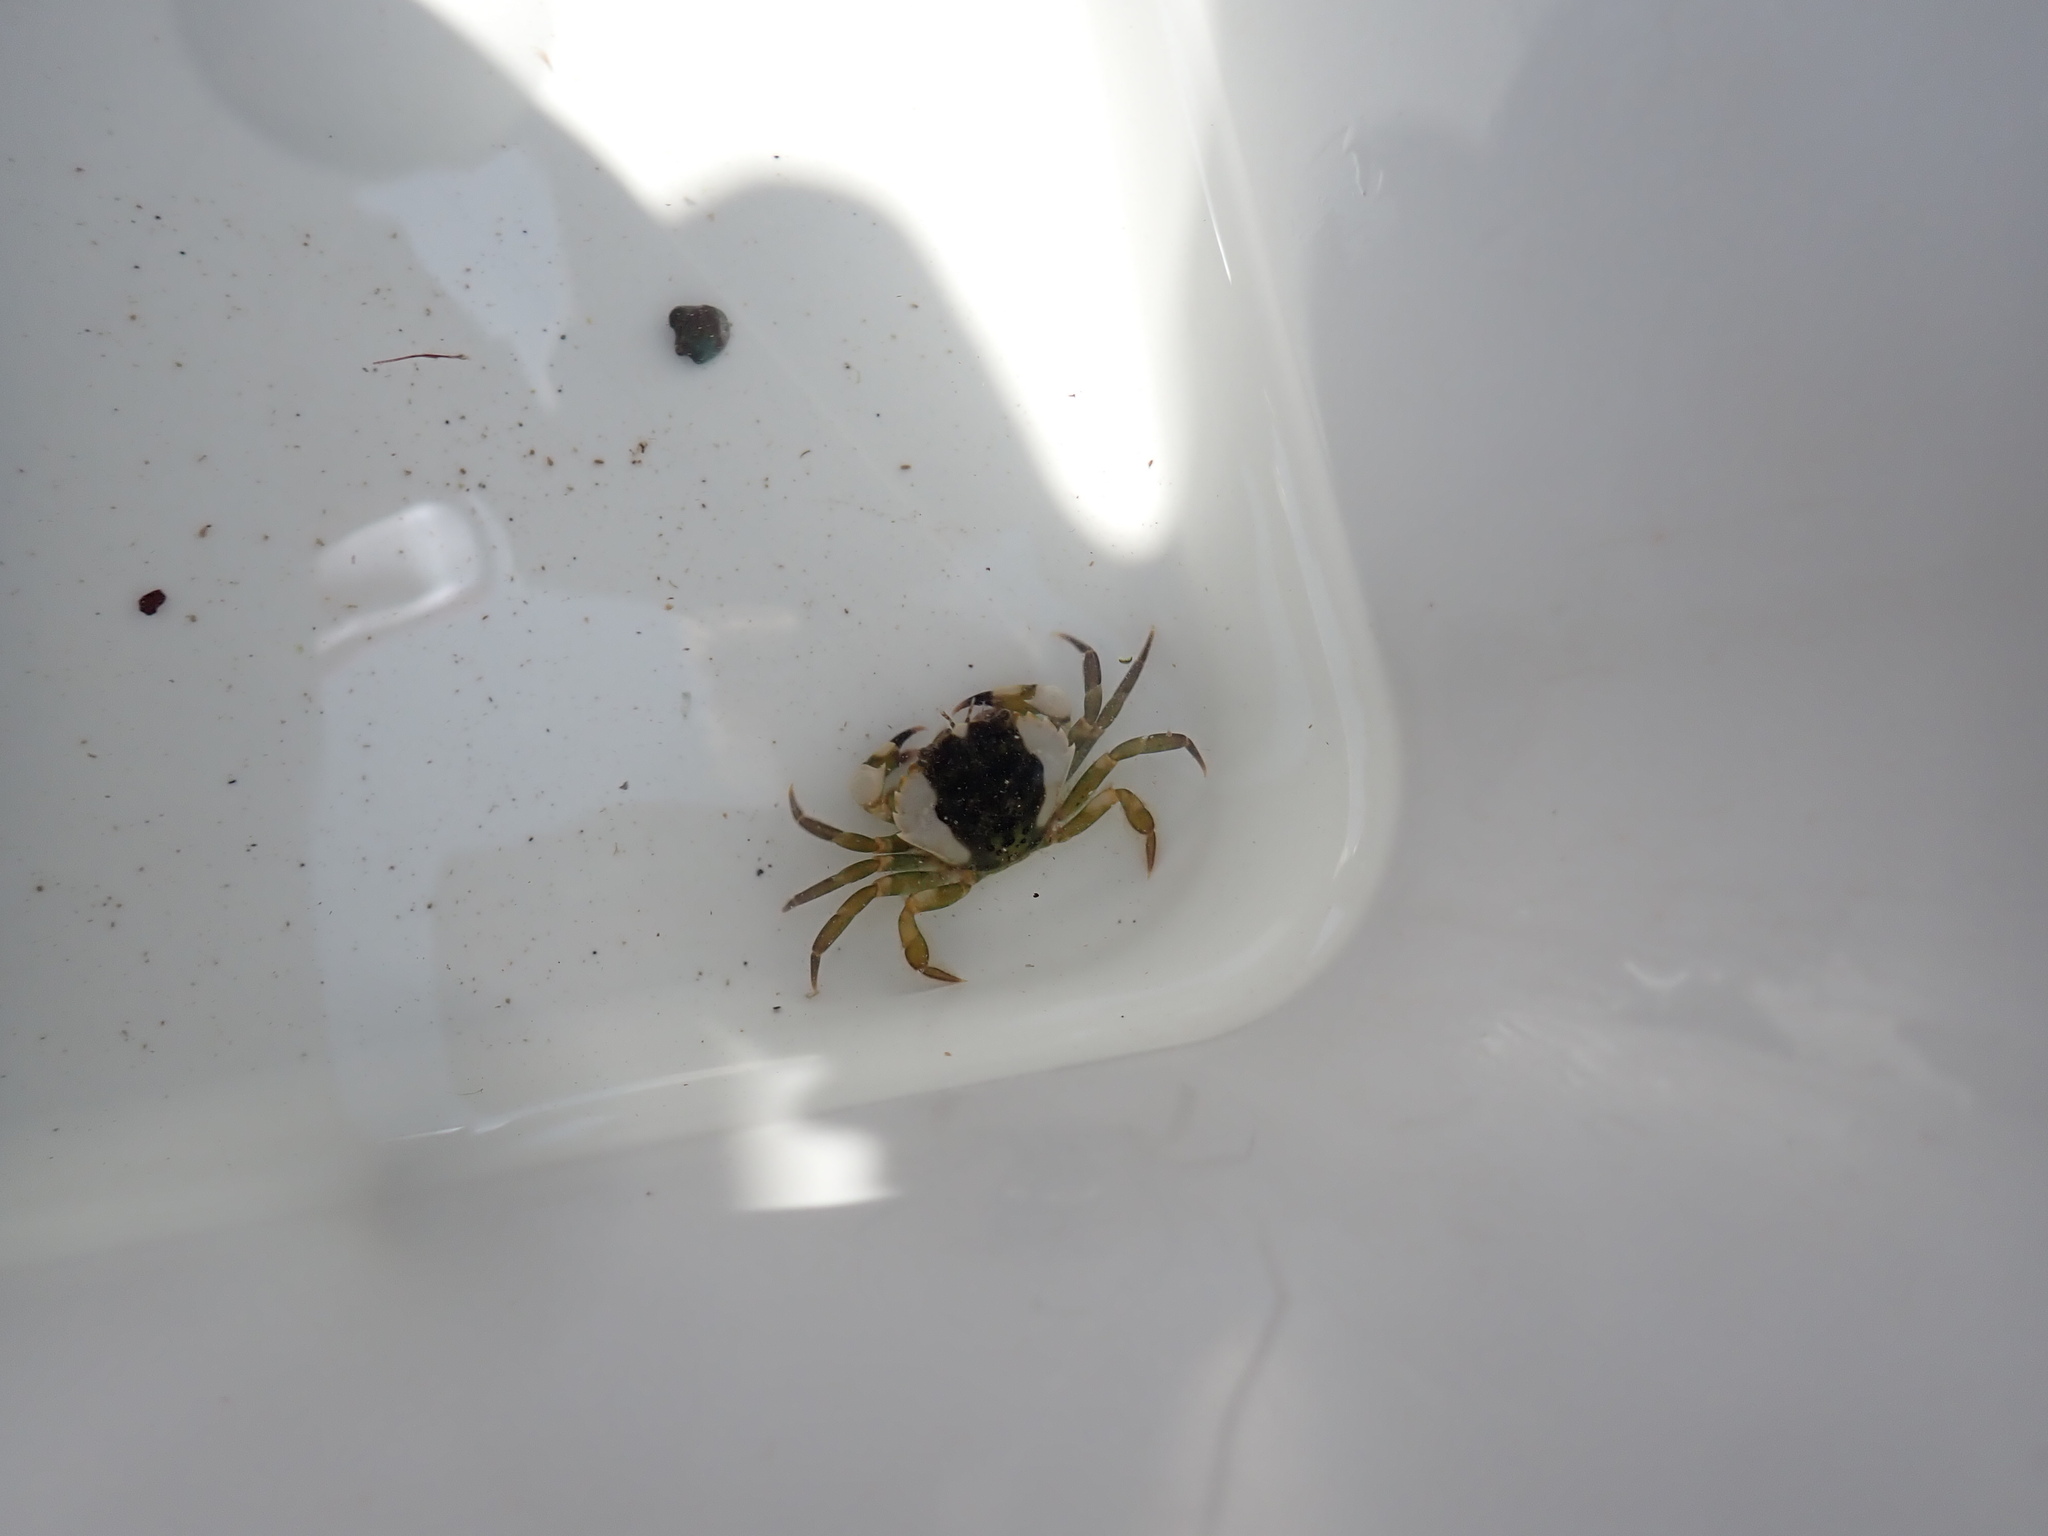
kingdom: Animalia
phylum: Arthropoda
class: Malacostraca
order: Decapoda
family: Carcinidae
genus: Carcinus
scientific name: Carcinus maenas
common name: European green crab
